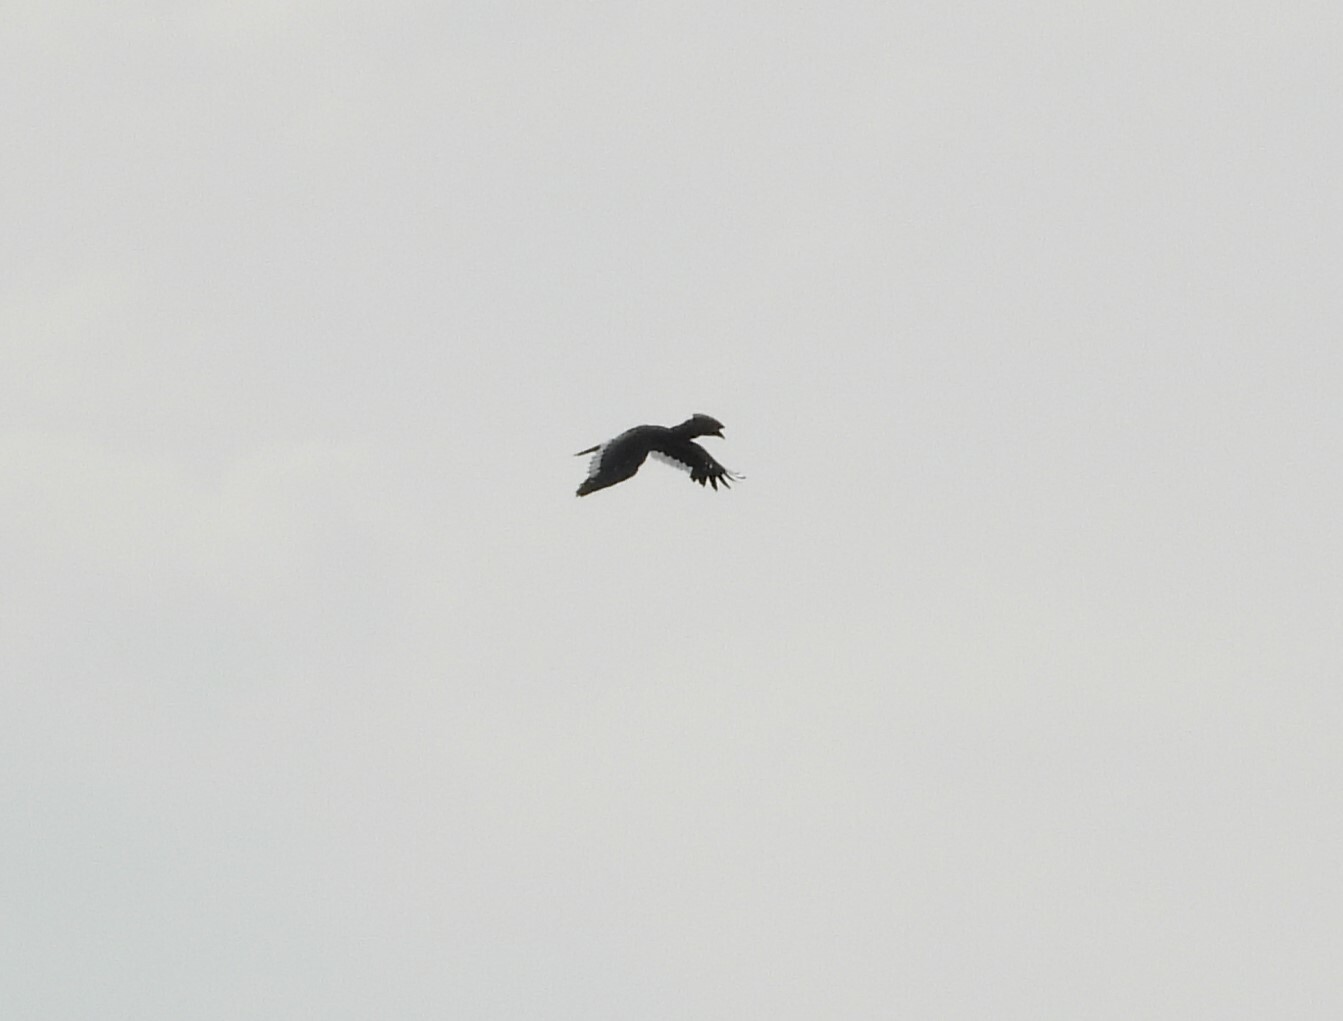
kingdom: Animalia
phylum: Chordata
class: Aves
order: Bucerotiformes
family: Bucerotidae
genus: Bycanistes
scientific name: Bycanistes bucinator
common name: Trumpeter hornbill
